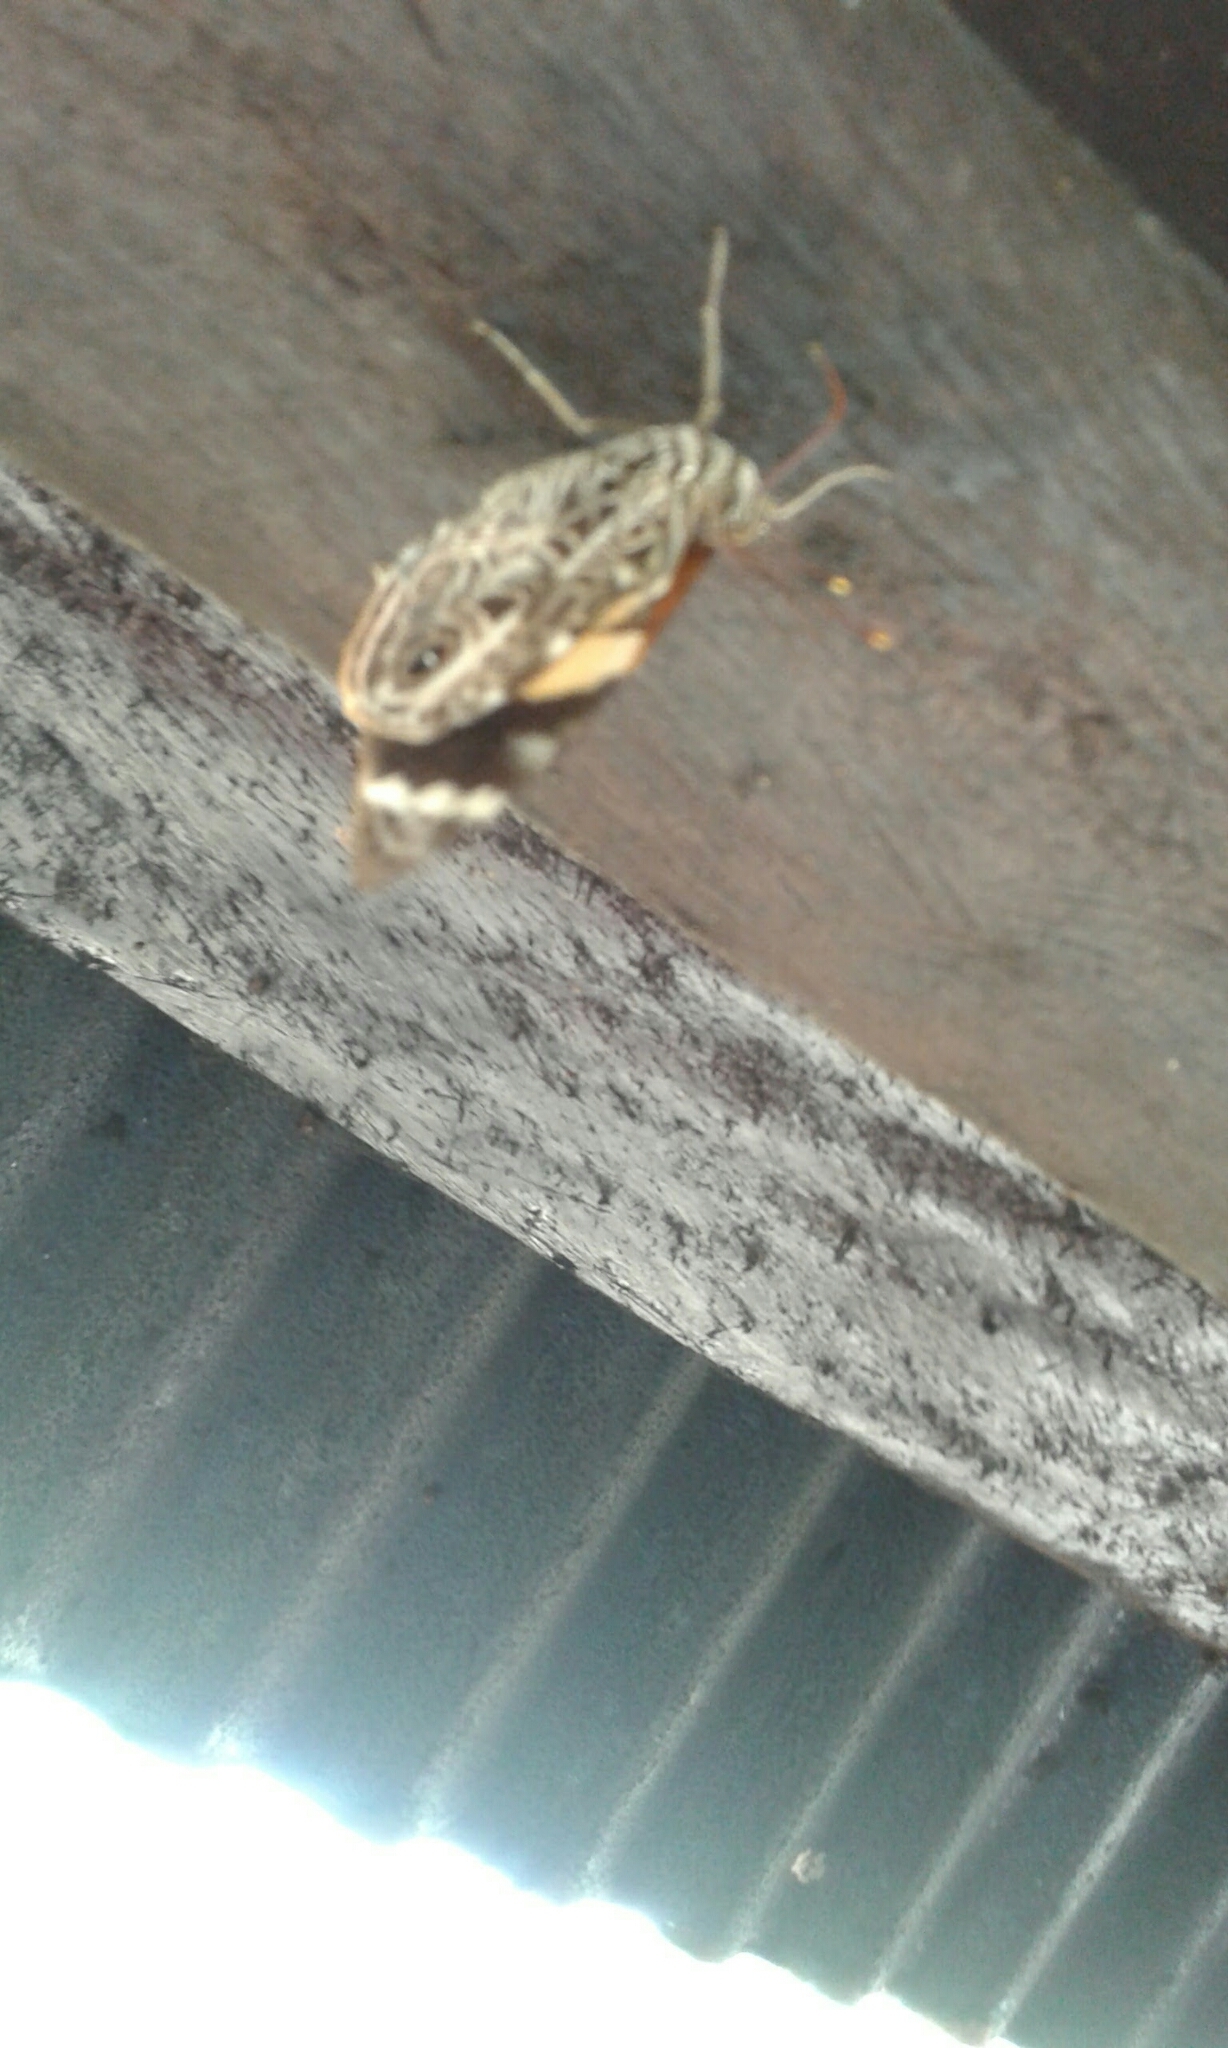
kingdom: Animalia
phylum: Arthropoda
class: Insecta
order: Lepidoptera
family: Nymphalidae
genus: Smyrna
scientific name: Smyrna blomfildia
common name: Blomfild's beauty
